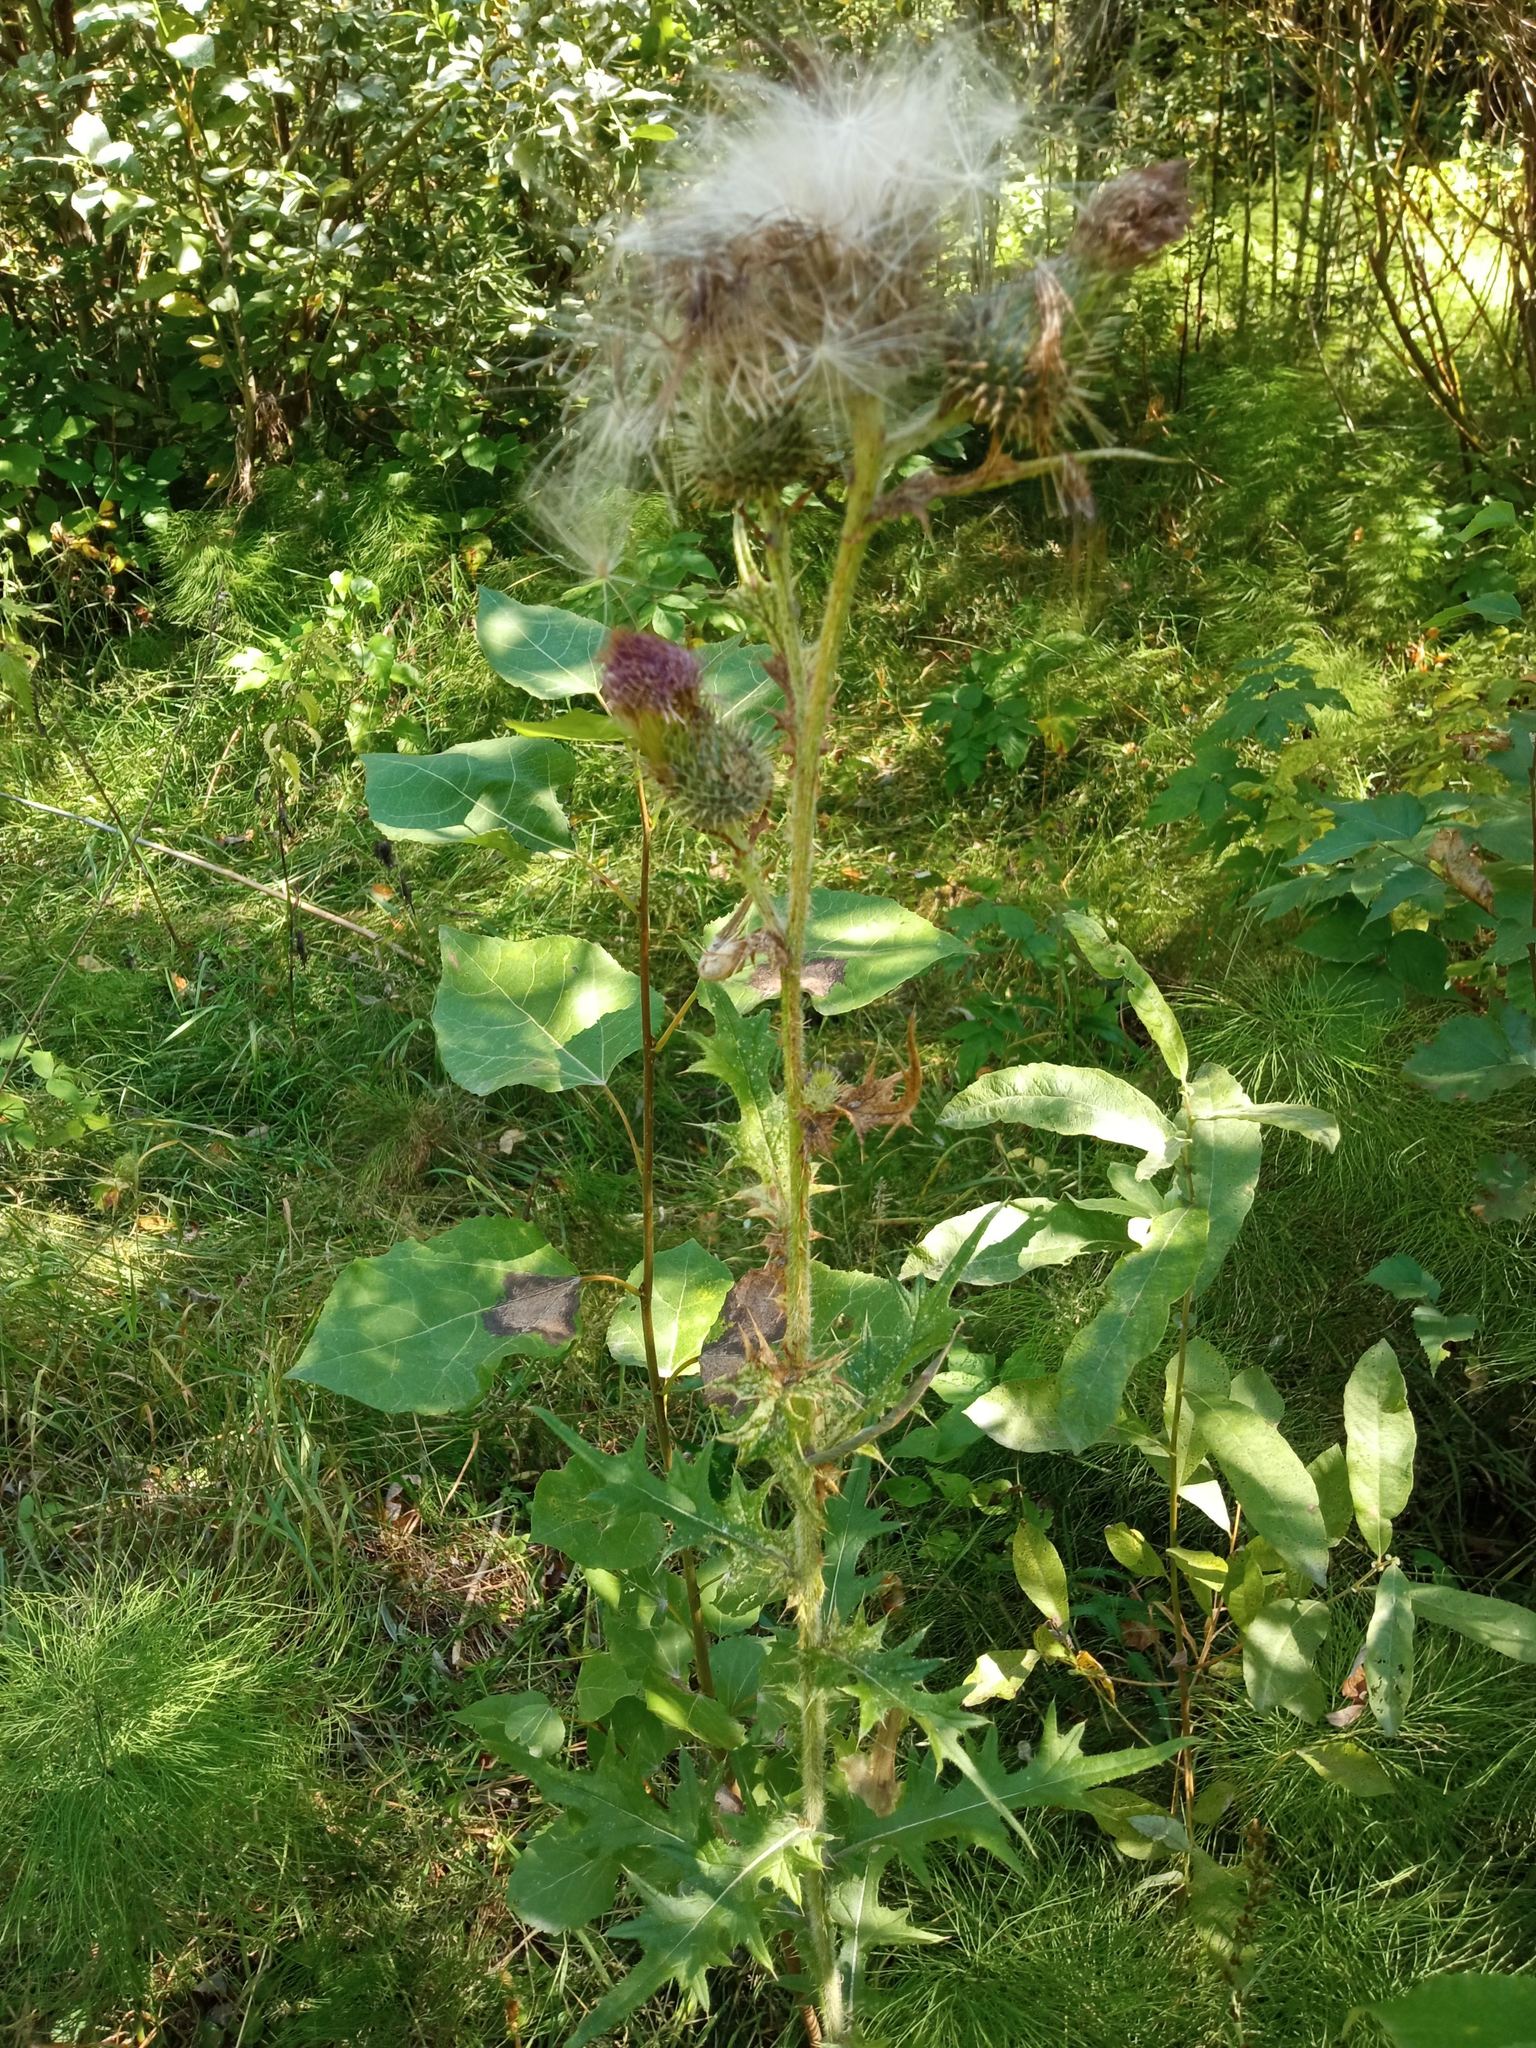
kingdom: Plantae
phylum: Tracheophyta
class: Magnoliopsida
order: Asterales
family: Asteraceae
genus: Cirsium
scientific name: Cirsium vulgare
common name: Bull thistle
